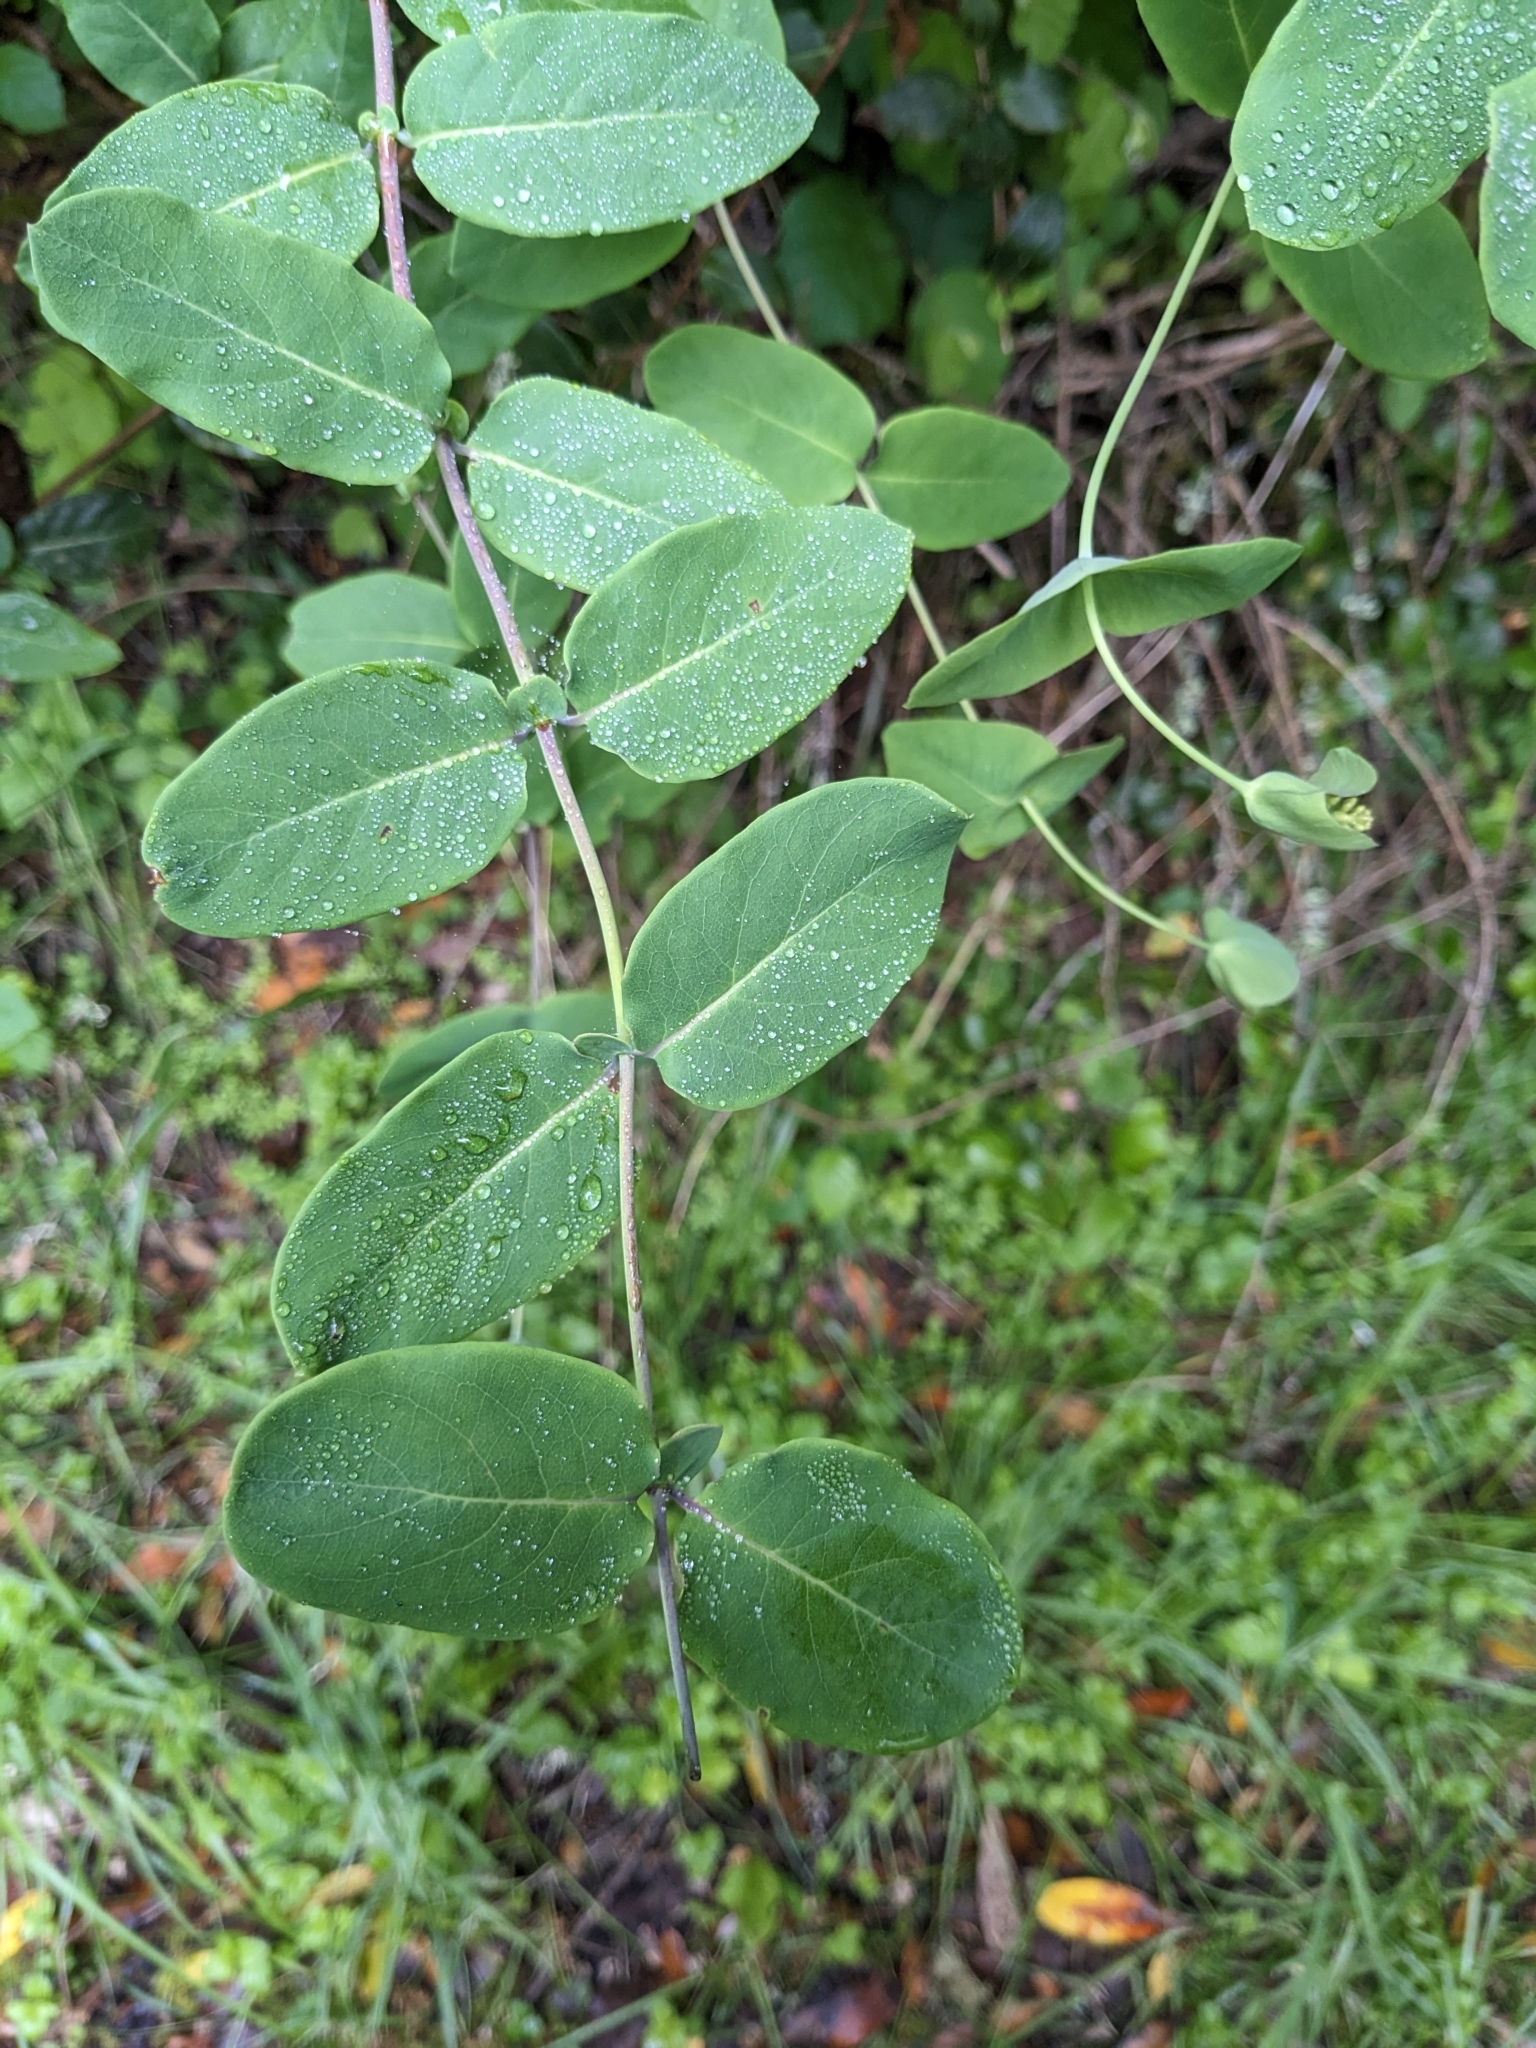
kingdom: Plantae
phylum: Tracheophyta
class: Magnoliopsida
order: Dipsacales
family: Caprifoliaceae
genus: Lonicera
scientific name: Lonicera hispidula
